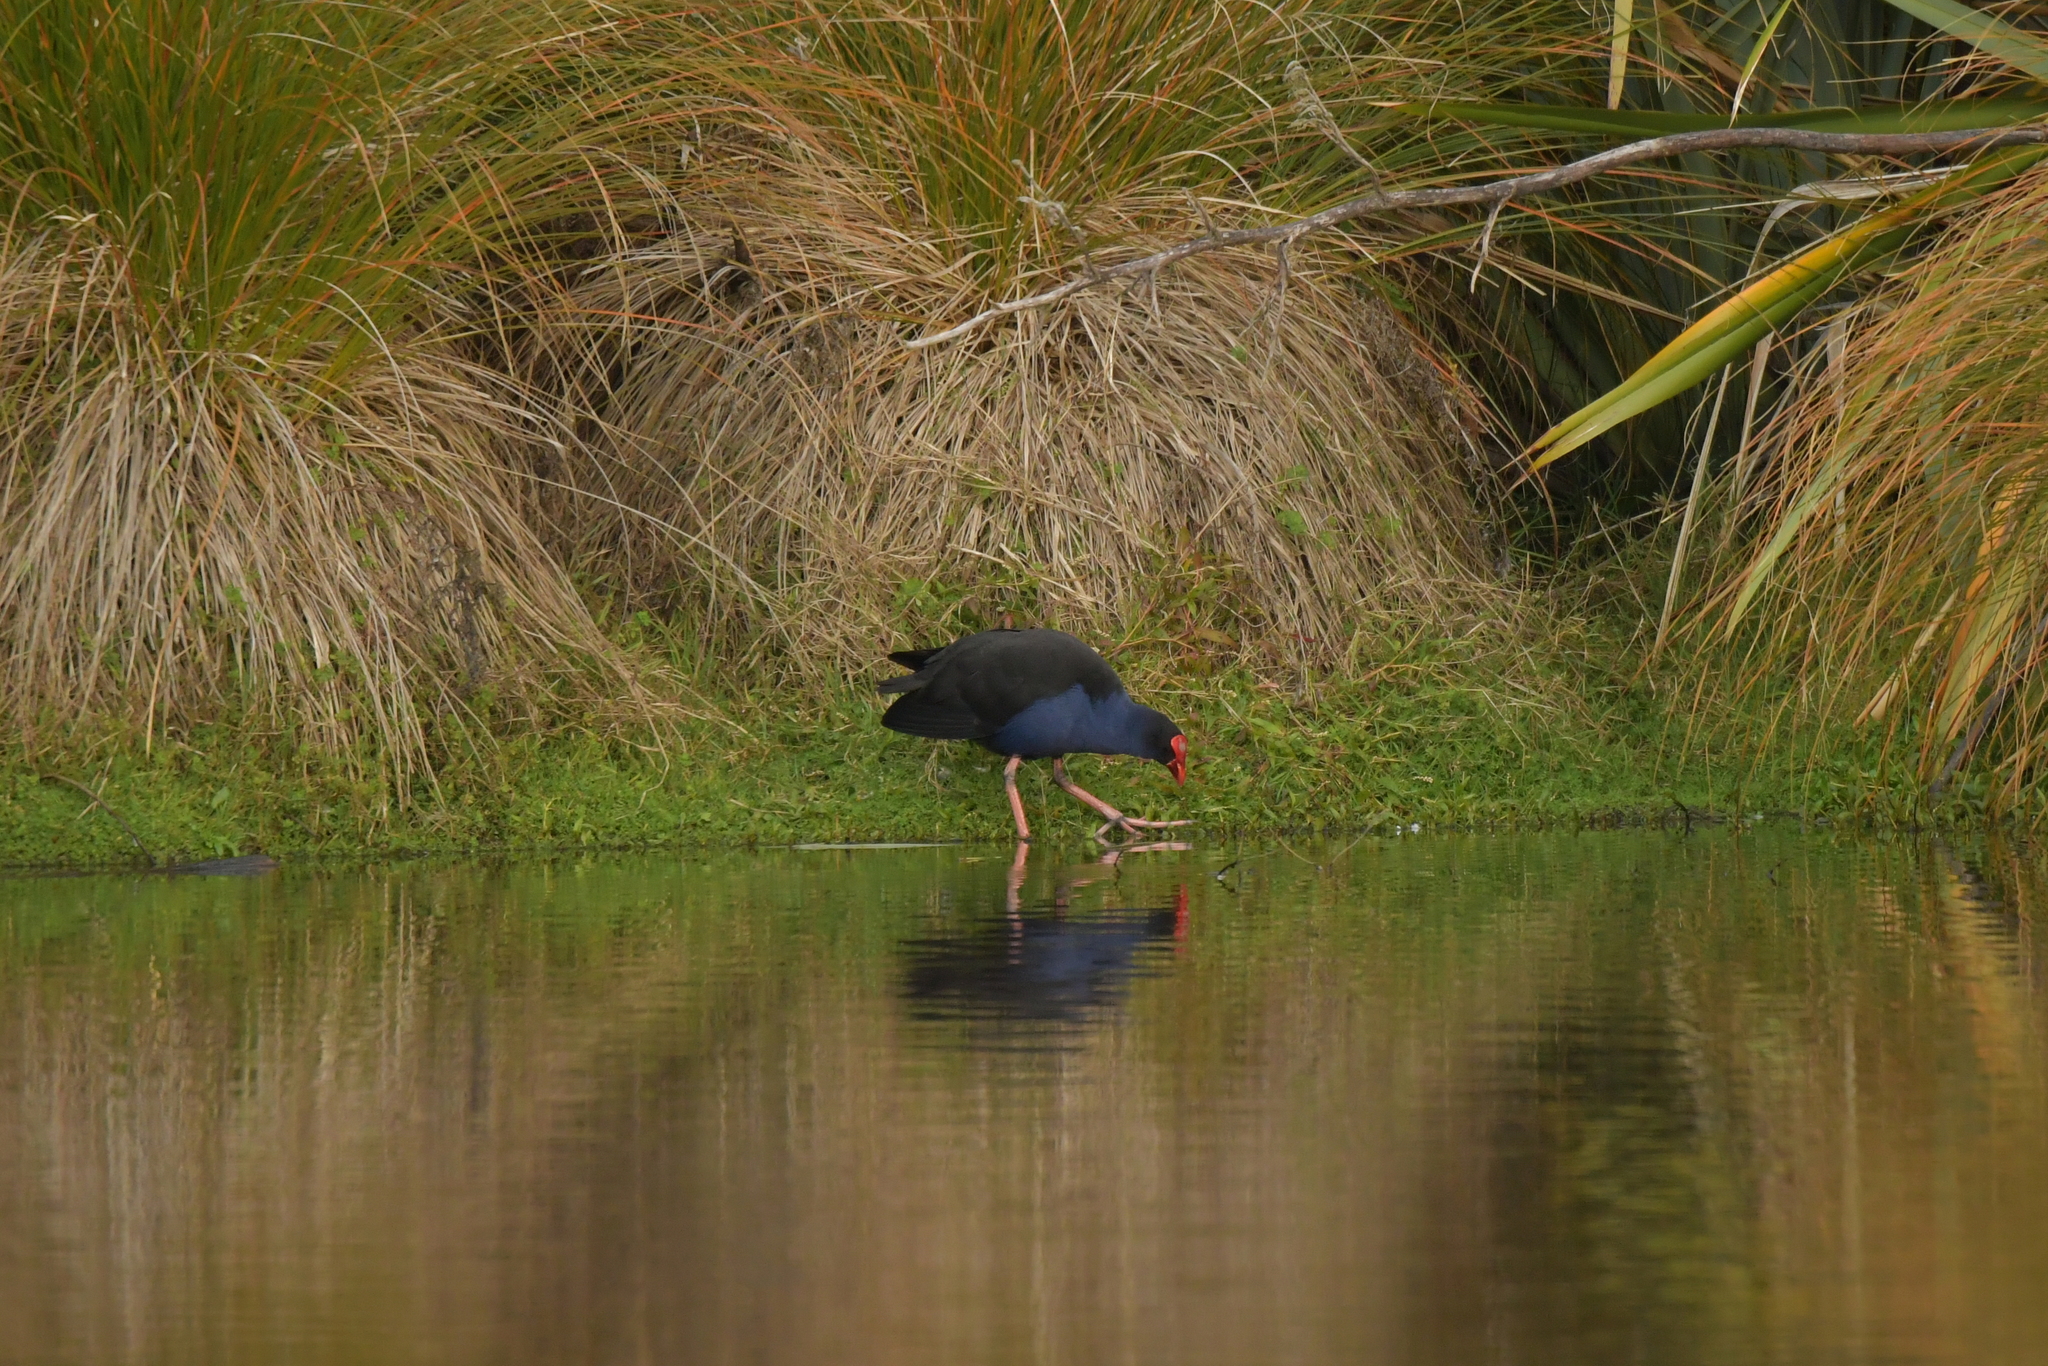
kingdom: Animalia
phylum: Chordata
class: Aves
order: Gruiformes
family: Rallidae
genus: Porphyrio
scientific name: Porphyrio melanotus
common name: Australasian swamphen
